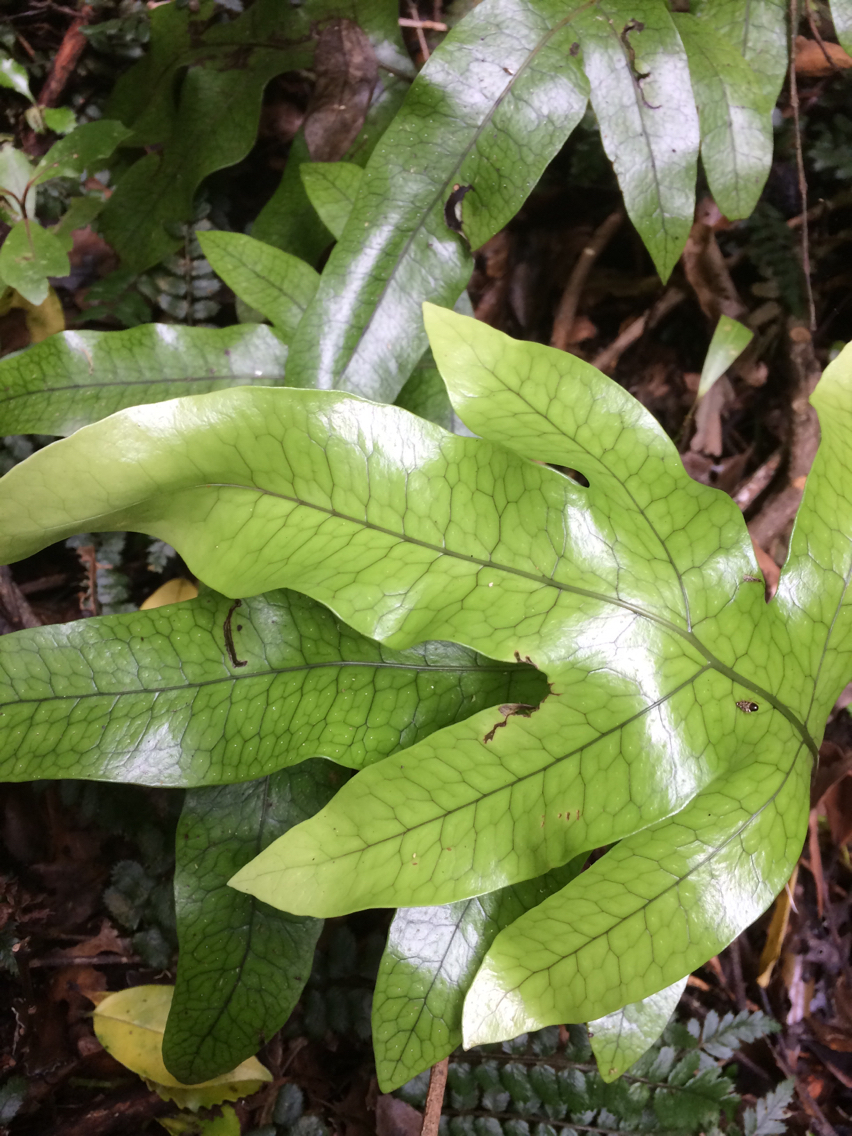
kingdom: Plantae
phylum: Tracheophyta
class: Polypodiopsida
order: Polypodiales
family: Polypodiaceae
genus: Lecanopteris
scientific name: Lecanopteris pustulata
